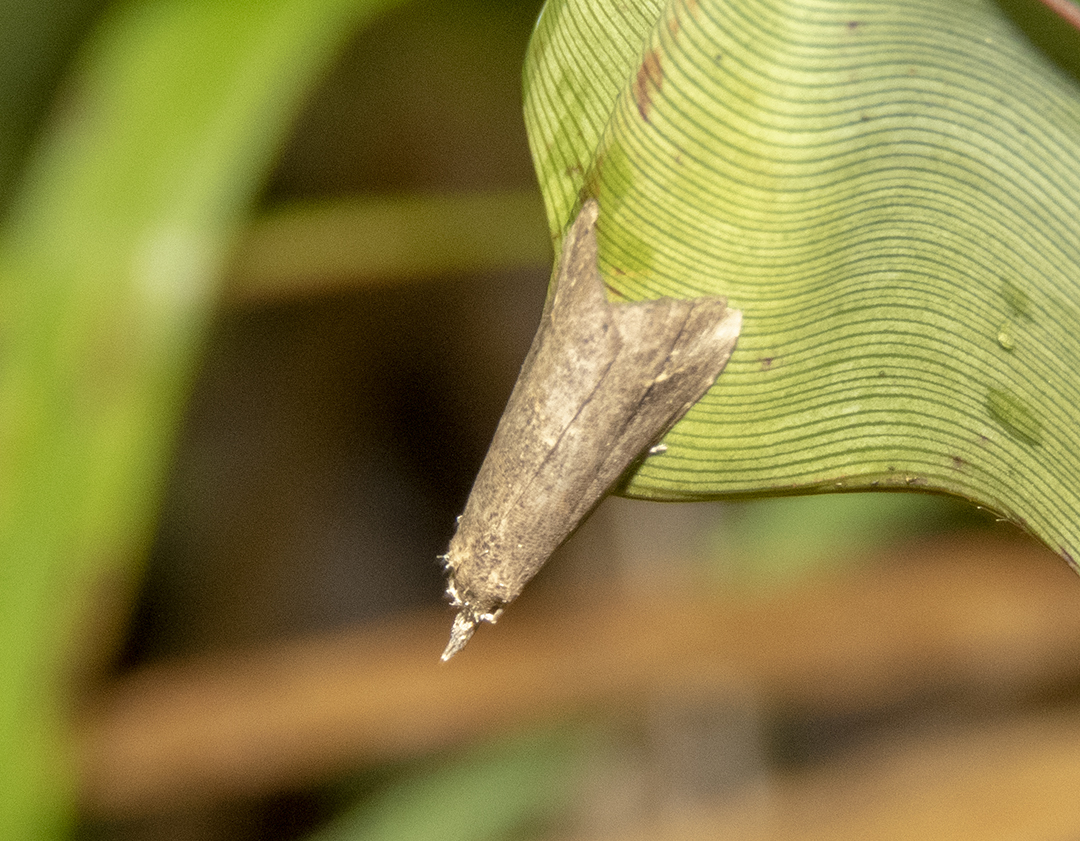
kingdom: Animalia
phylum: Arthropoda
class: Insecta
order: Lepidoptera
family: Erebidae
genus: Schrankia
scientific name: Schrankia costaestrigalis
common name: Pinion-streaked snout
